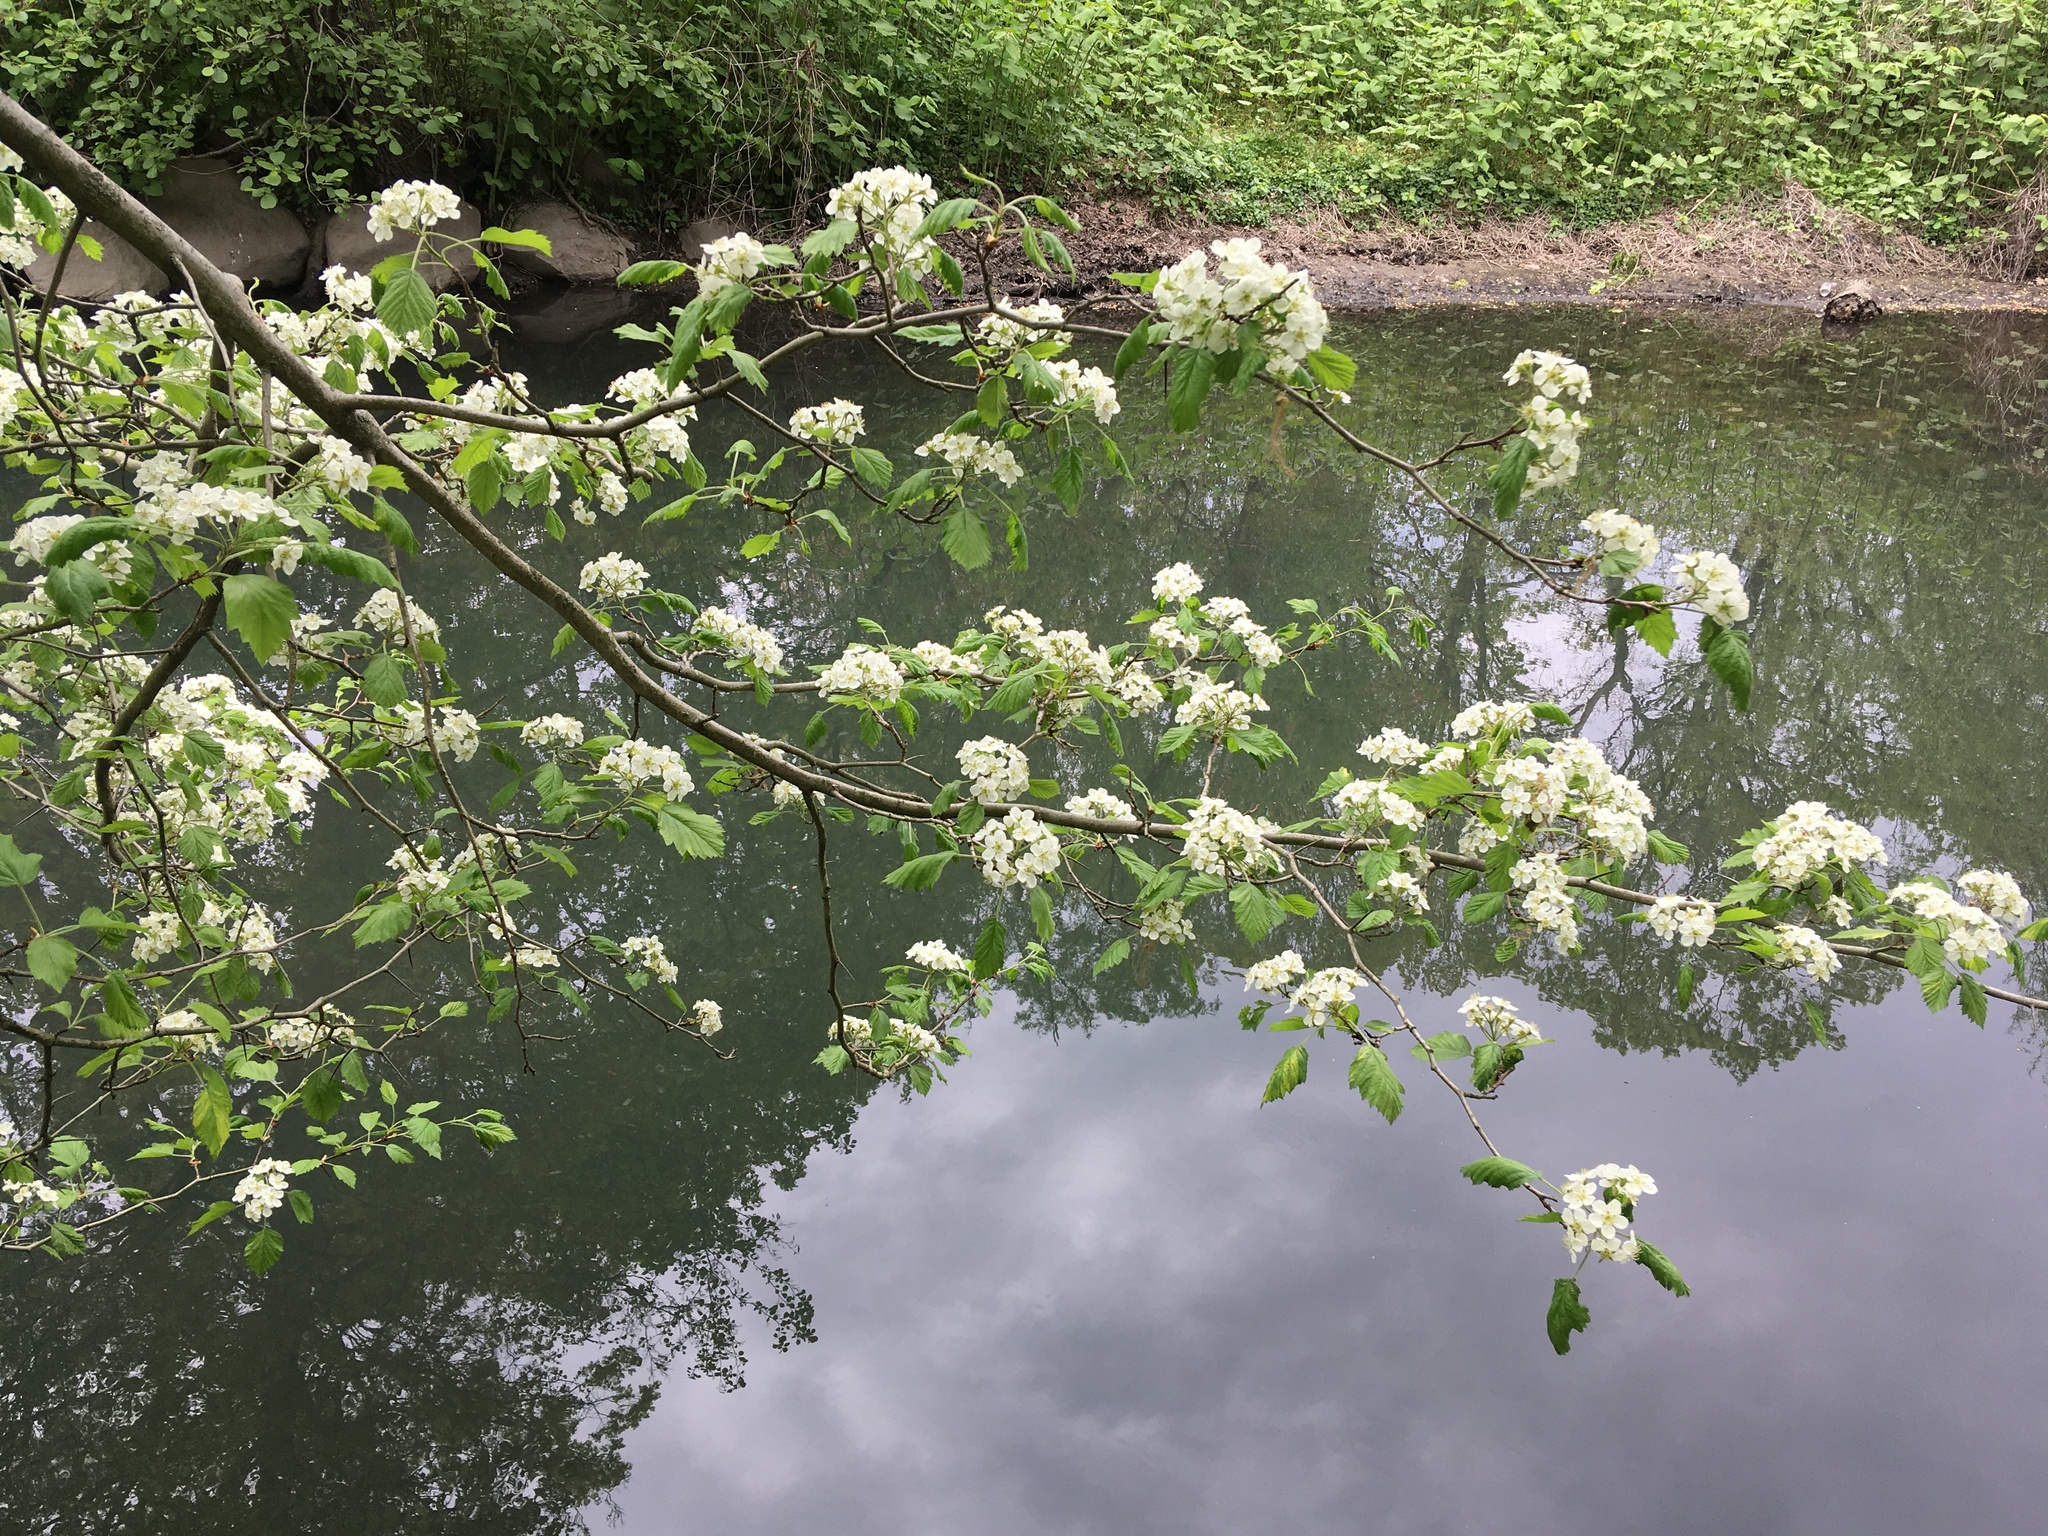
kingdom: Plantae
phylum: Tracheophyta
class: Magnoliopsida
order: Rosales
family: Rosaceae
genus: Crataegus
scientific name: Crataegus mollis
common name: Downy hawthorn
